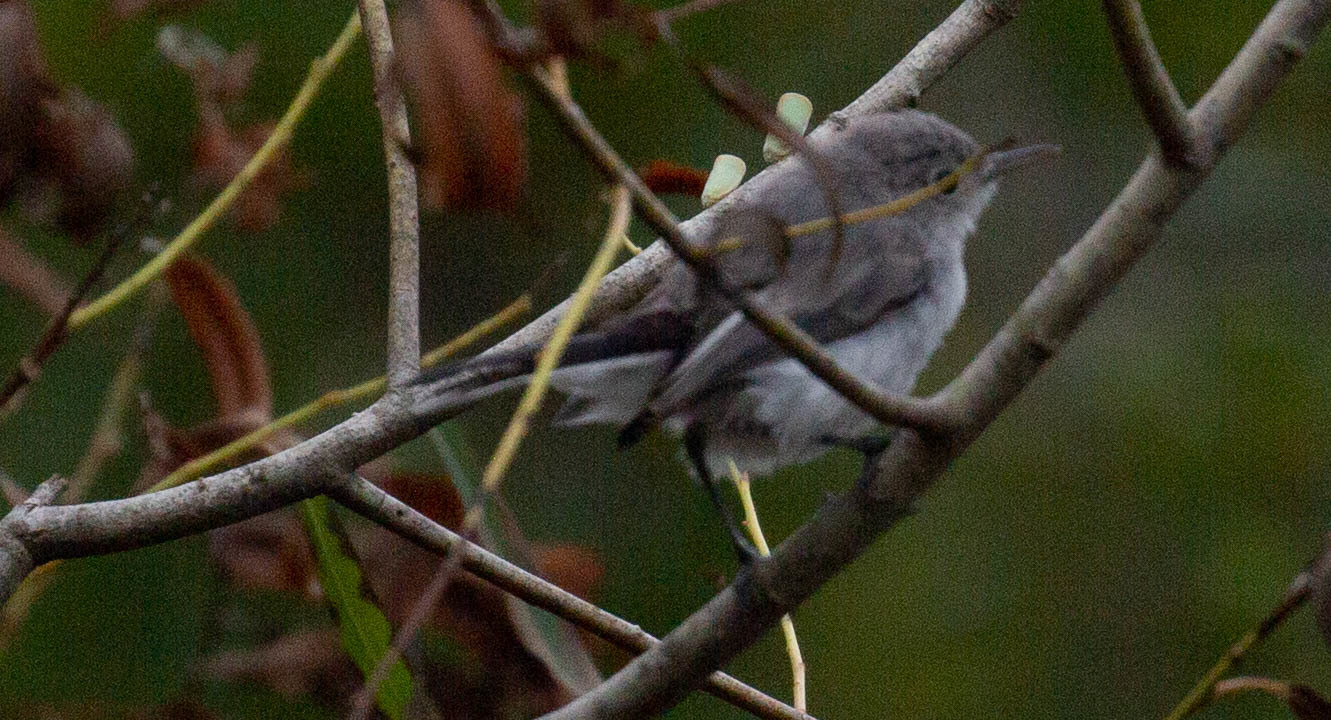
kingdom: Animalia
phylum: Chordata
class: Aves
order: Passeriformes
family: Polioptilidae
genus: Polioptila
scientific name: Polioptila caerulea
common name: Blue-gray gnatcatcher
